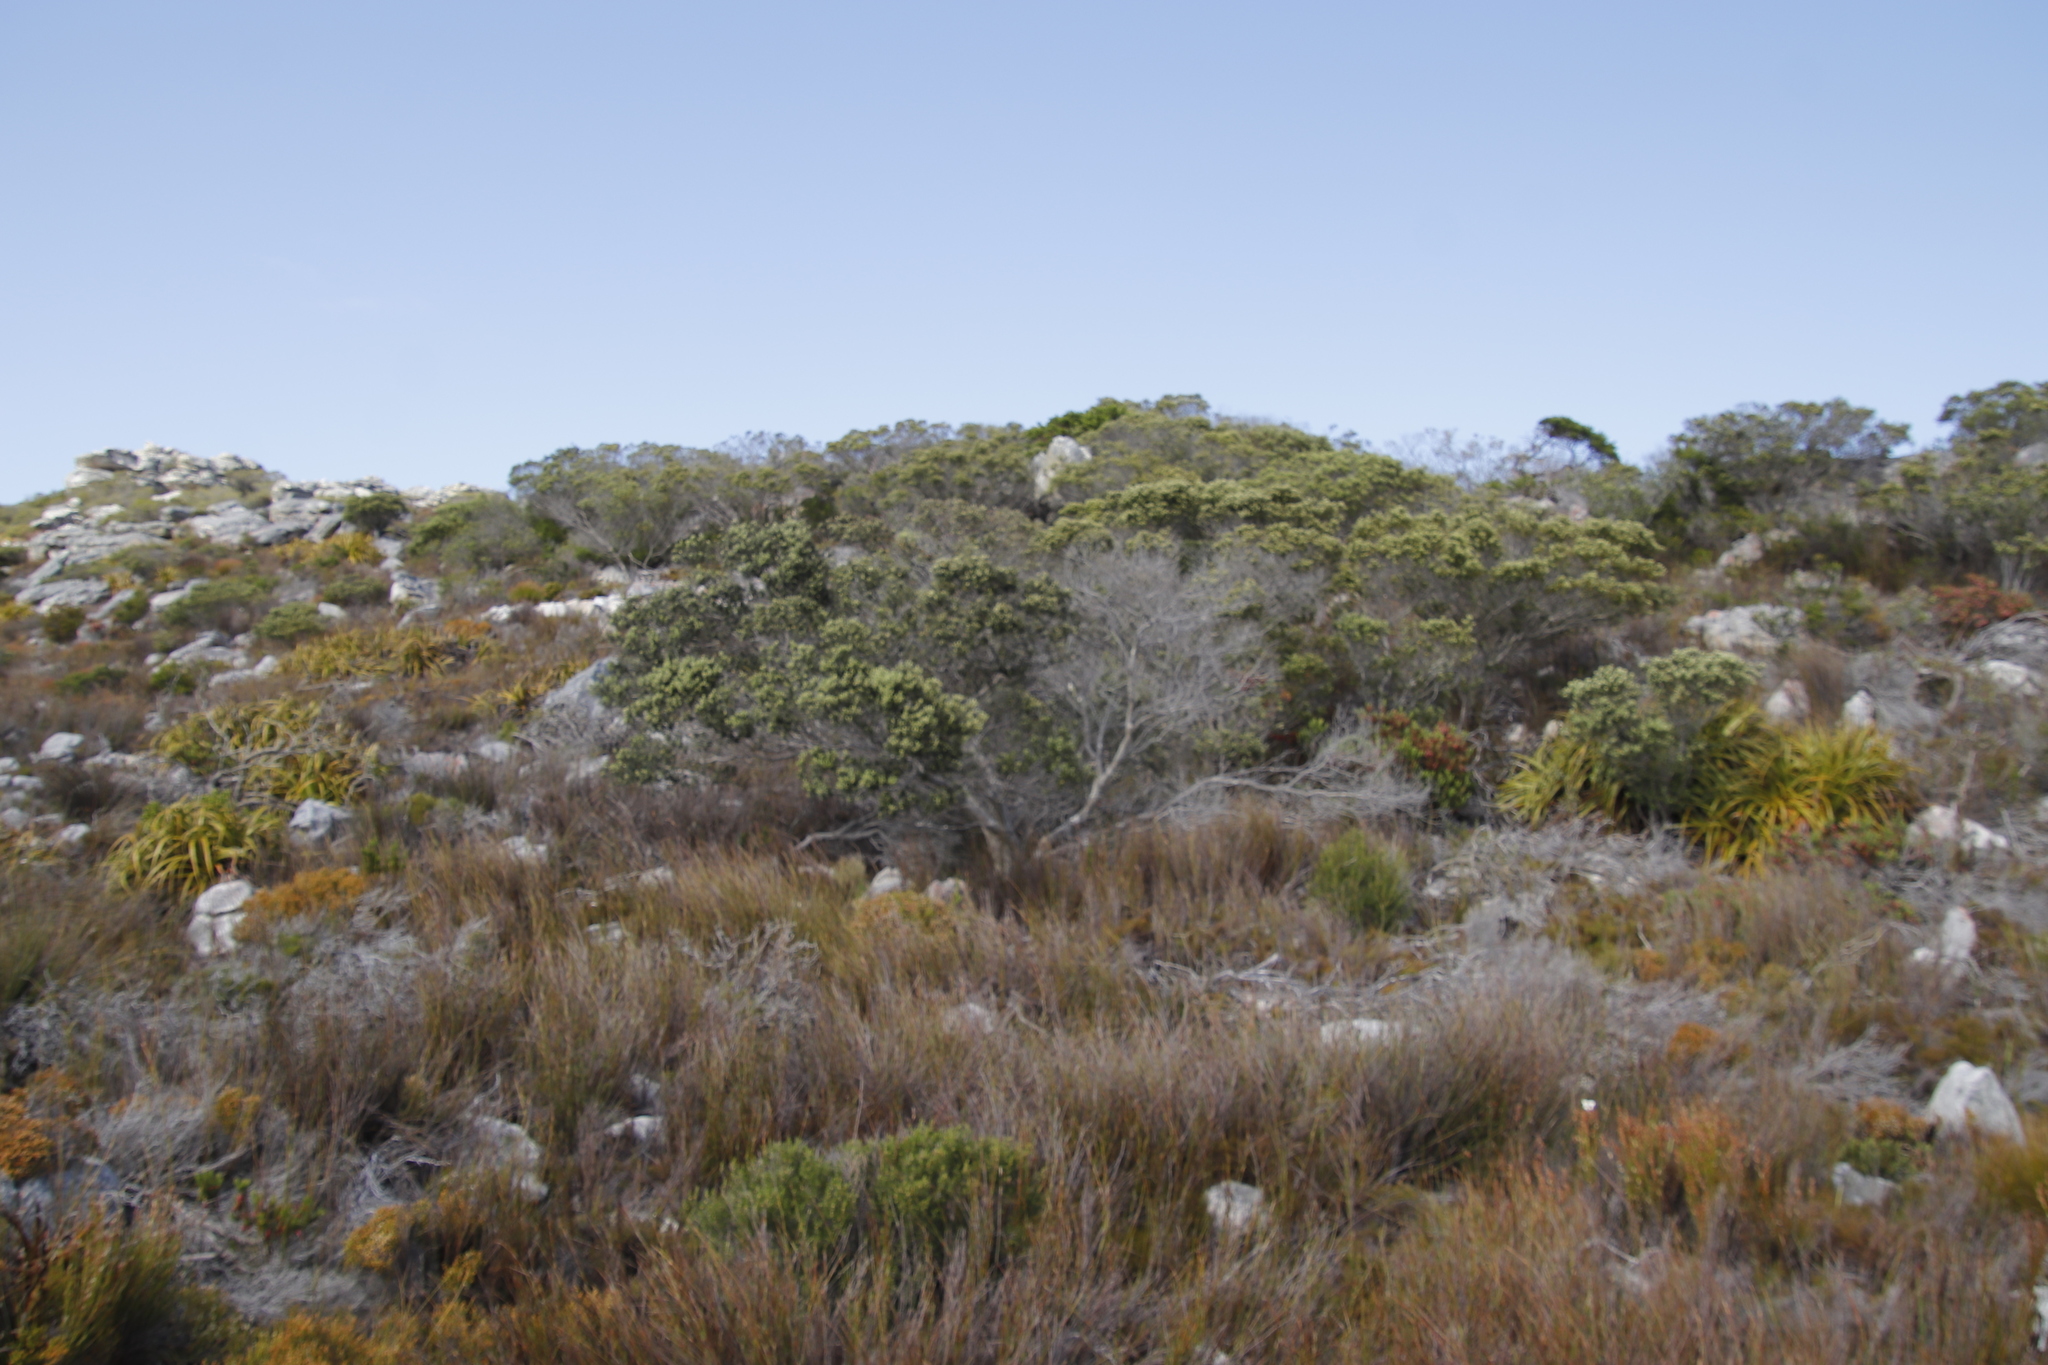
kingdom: Plantae
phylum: Tracheophyta
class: Magnoliopsida
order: Rosales
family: Rhamnaceae
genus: Phylica
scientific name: Phylica buxifolia
